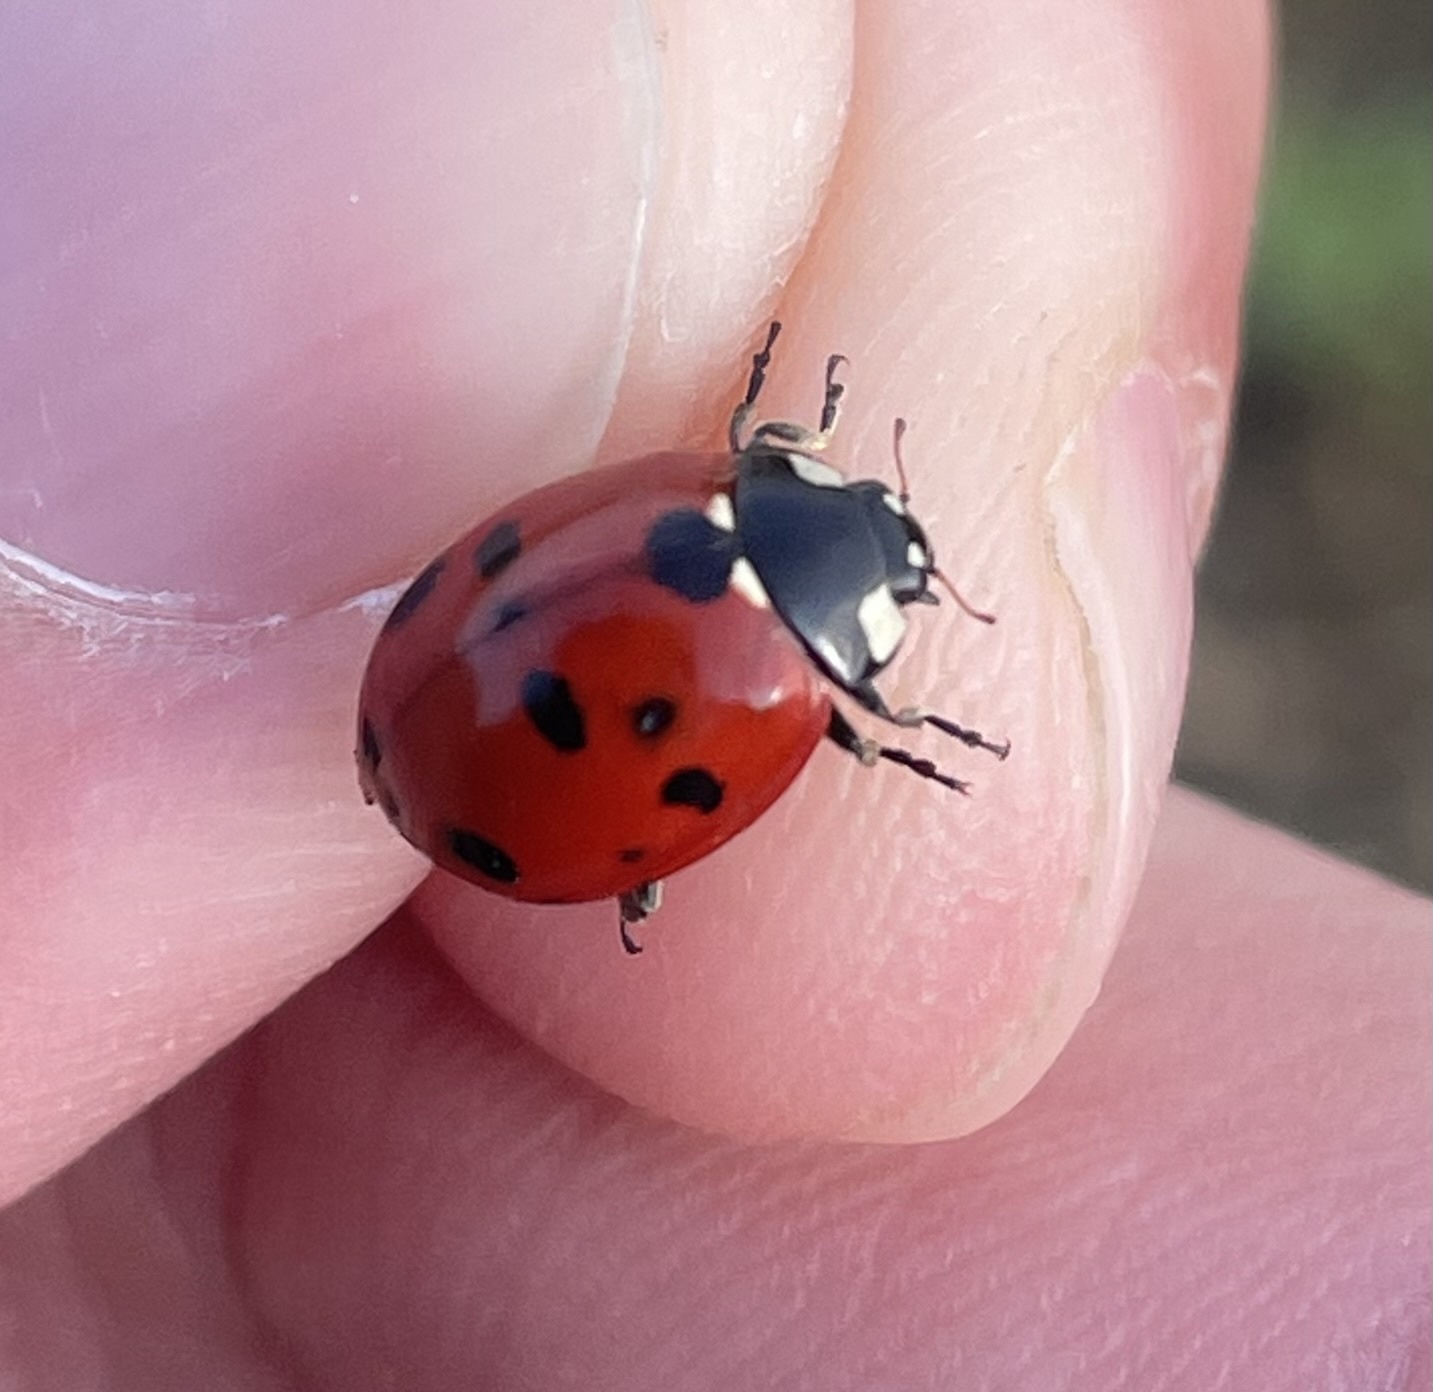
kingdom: Animalia
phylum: Arthropoda
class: Insecta
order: Coleoptera
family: Coccinellidae
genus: Coccinella
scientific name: Coccinella septempunctata
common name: Sevenspotted lady beetle
